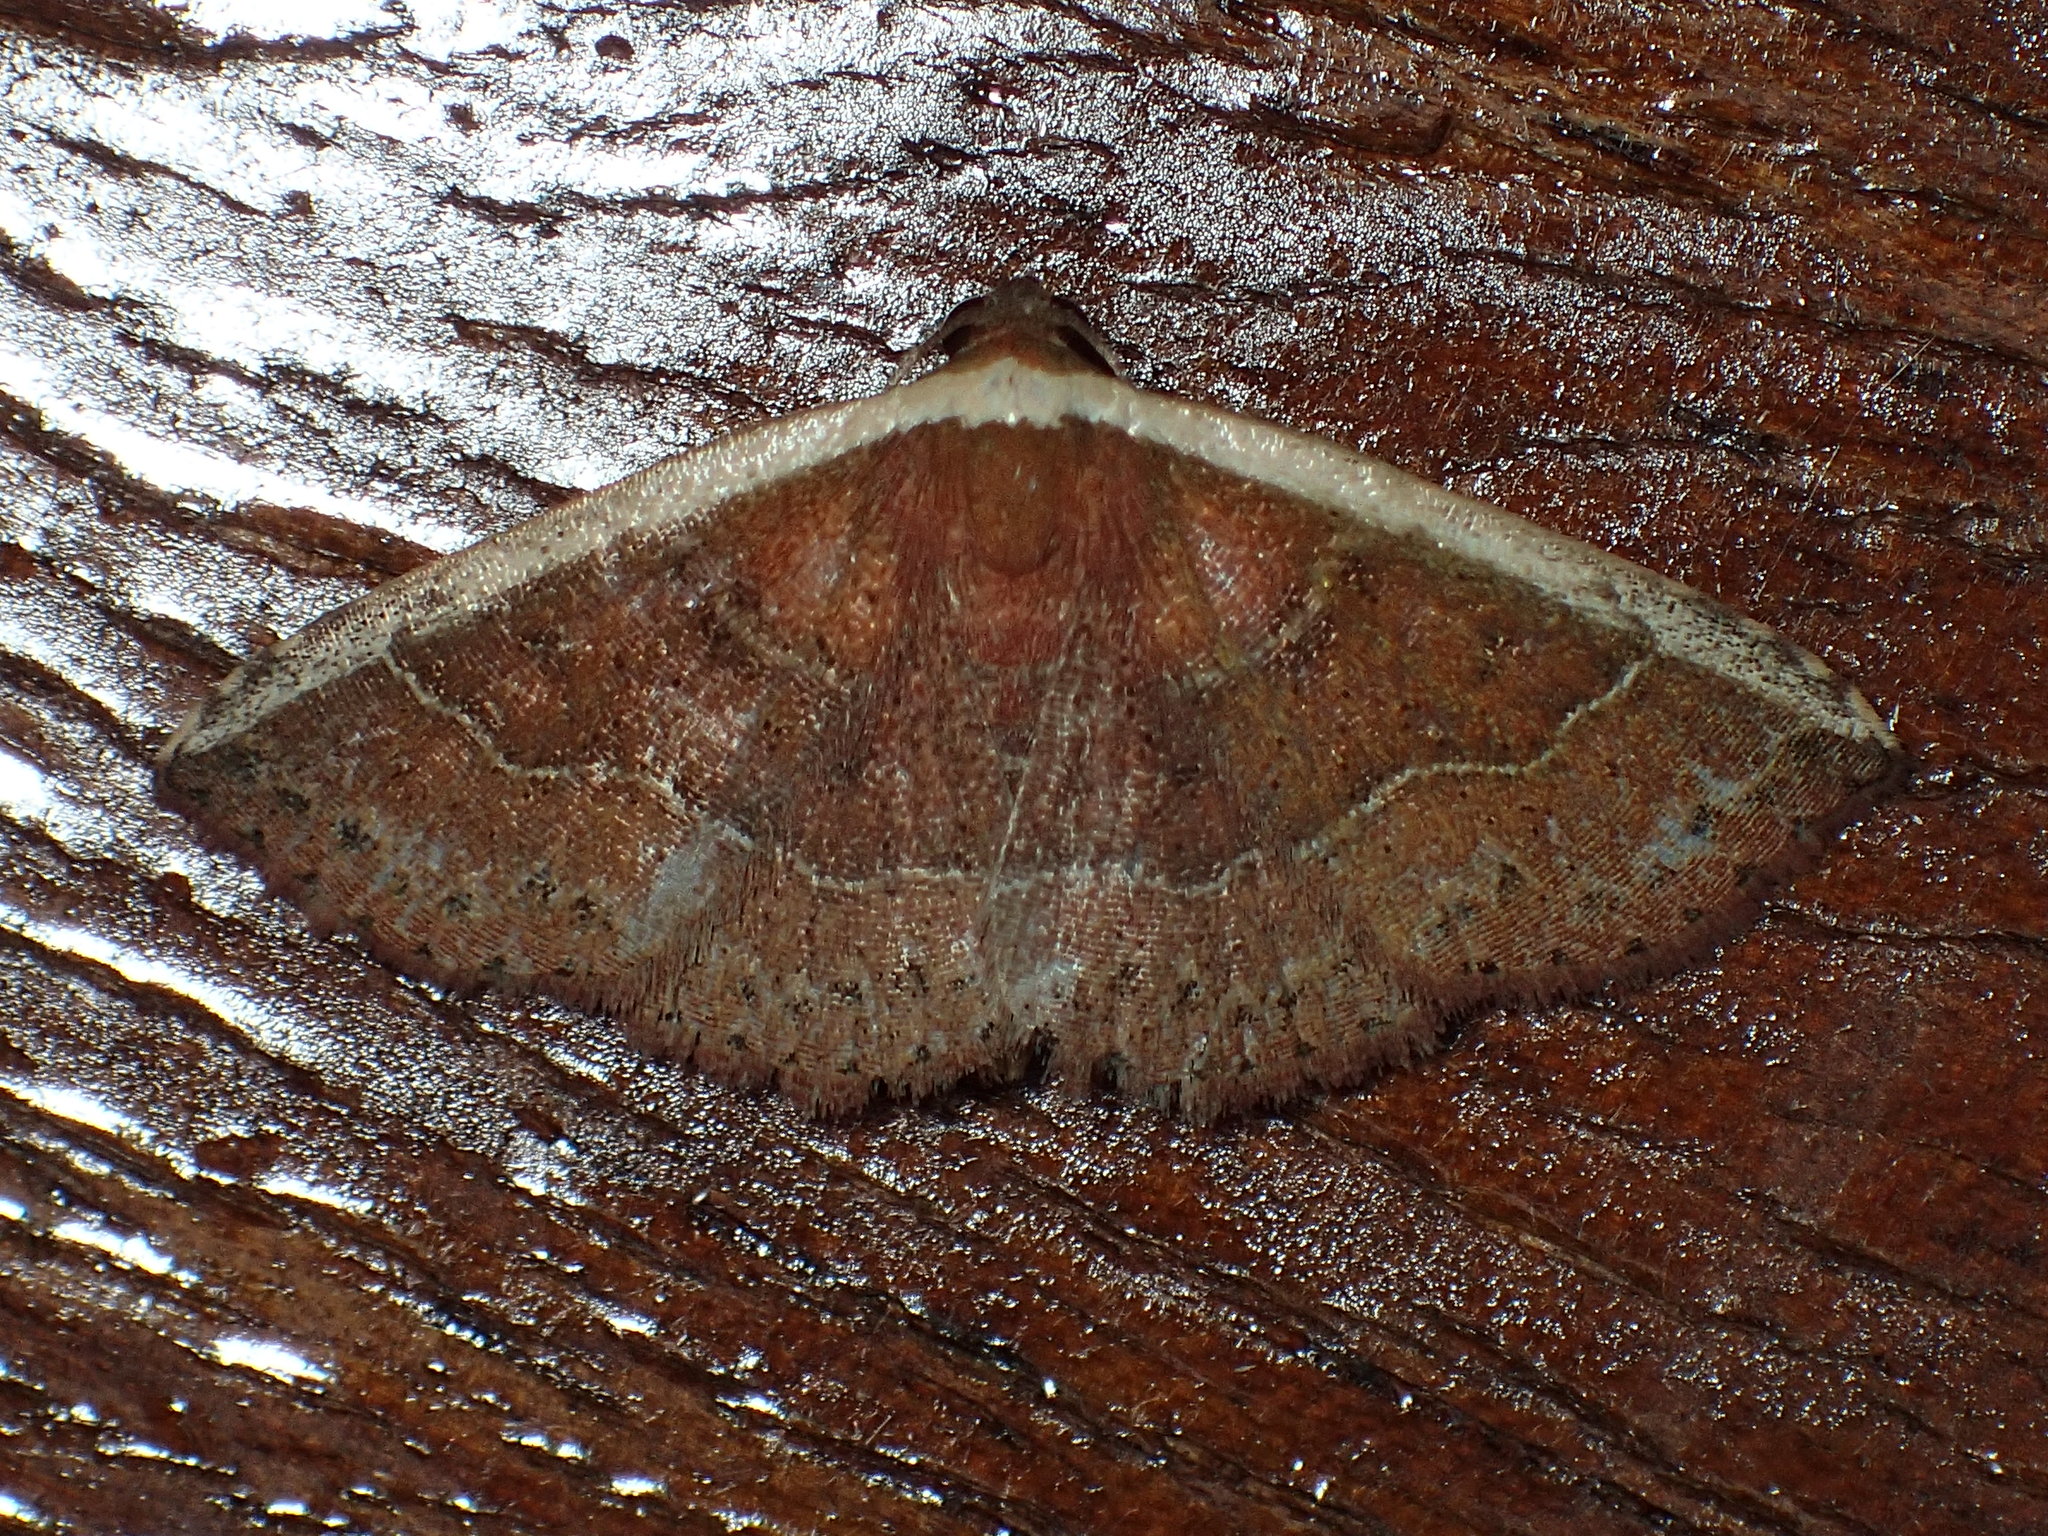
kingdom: Animalia
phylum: Arthropoda
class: Insecta
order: Lepidoptera
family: Noctuidae
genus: Ozarba
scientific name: Ozarba albocostaliata
